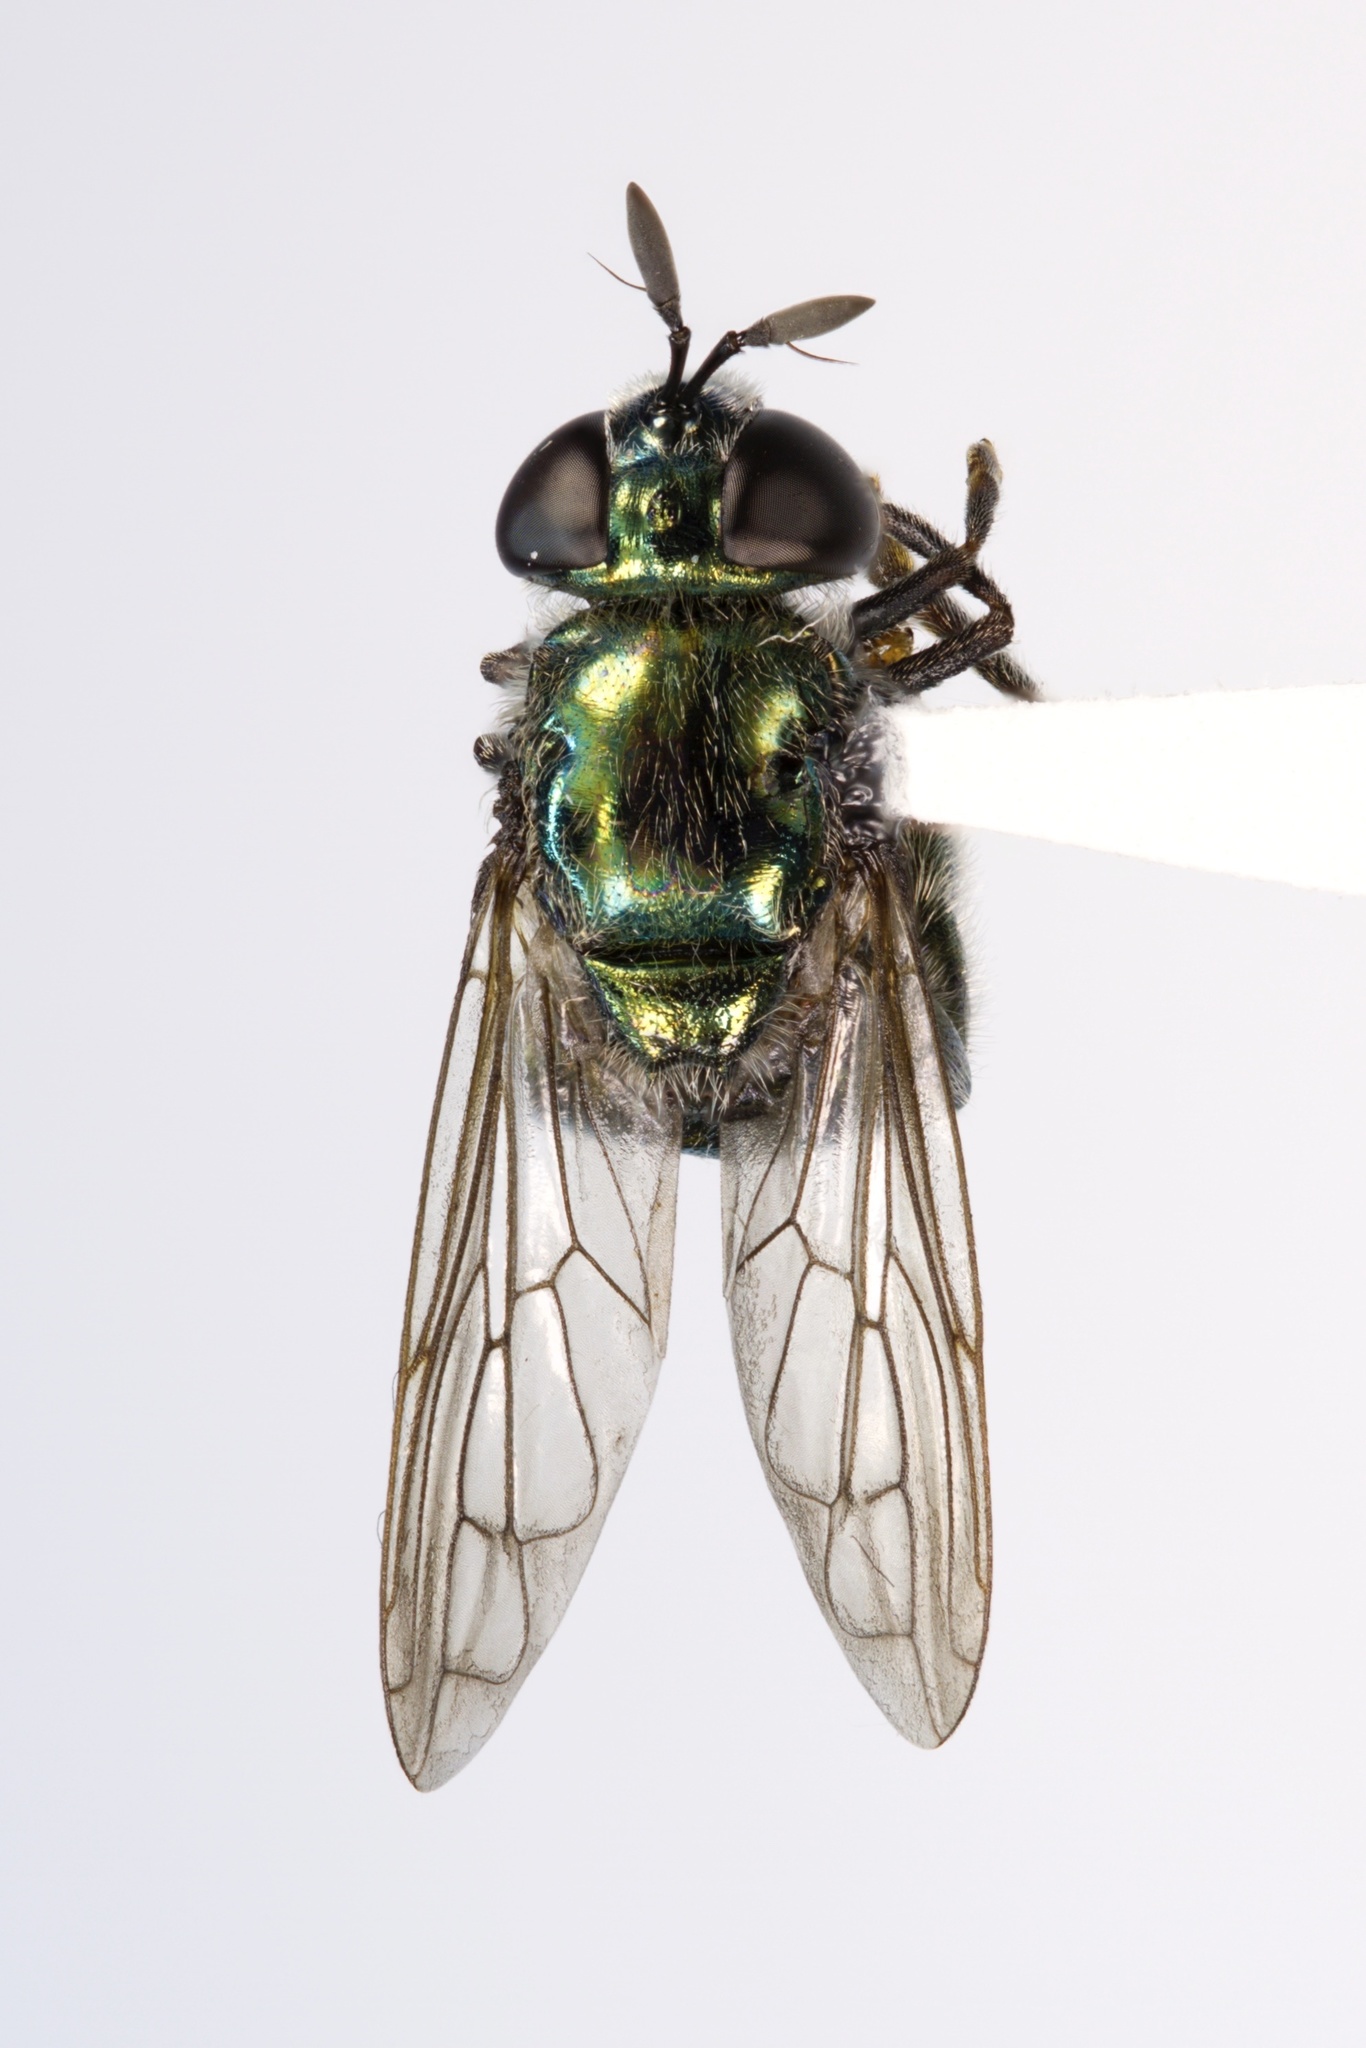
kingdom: Animalia
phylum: Arthropoda
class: Insecta
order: Diptera
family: Syrphidae
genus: Microdon
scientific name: Microdon craigheadii
